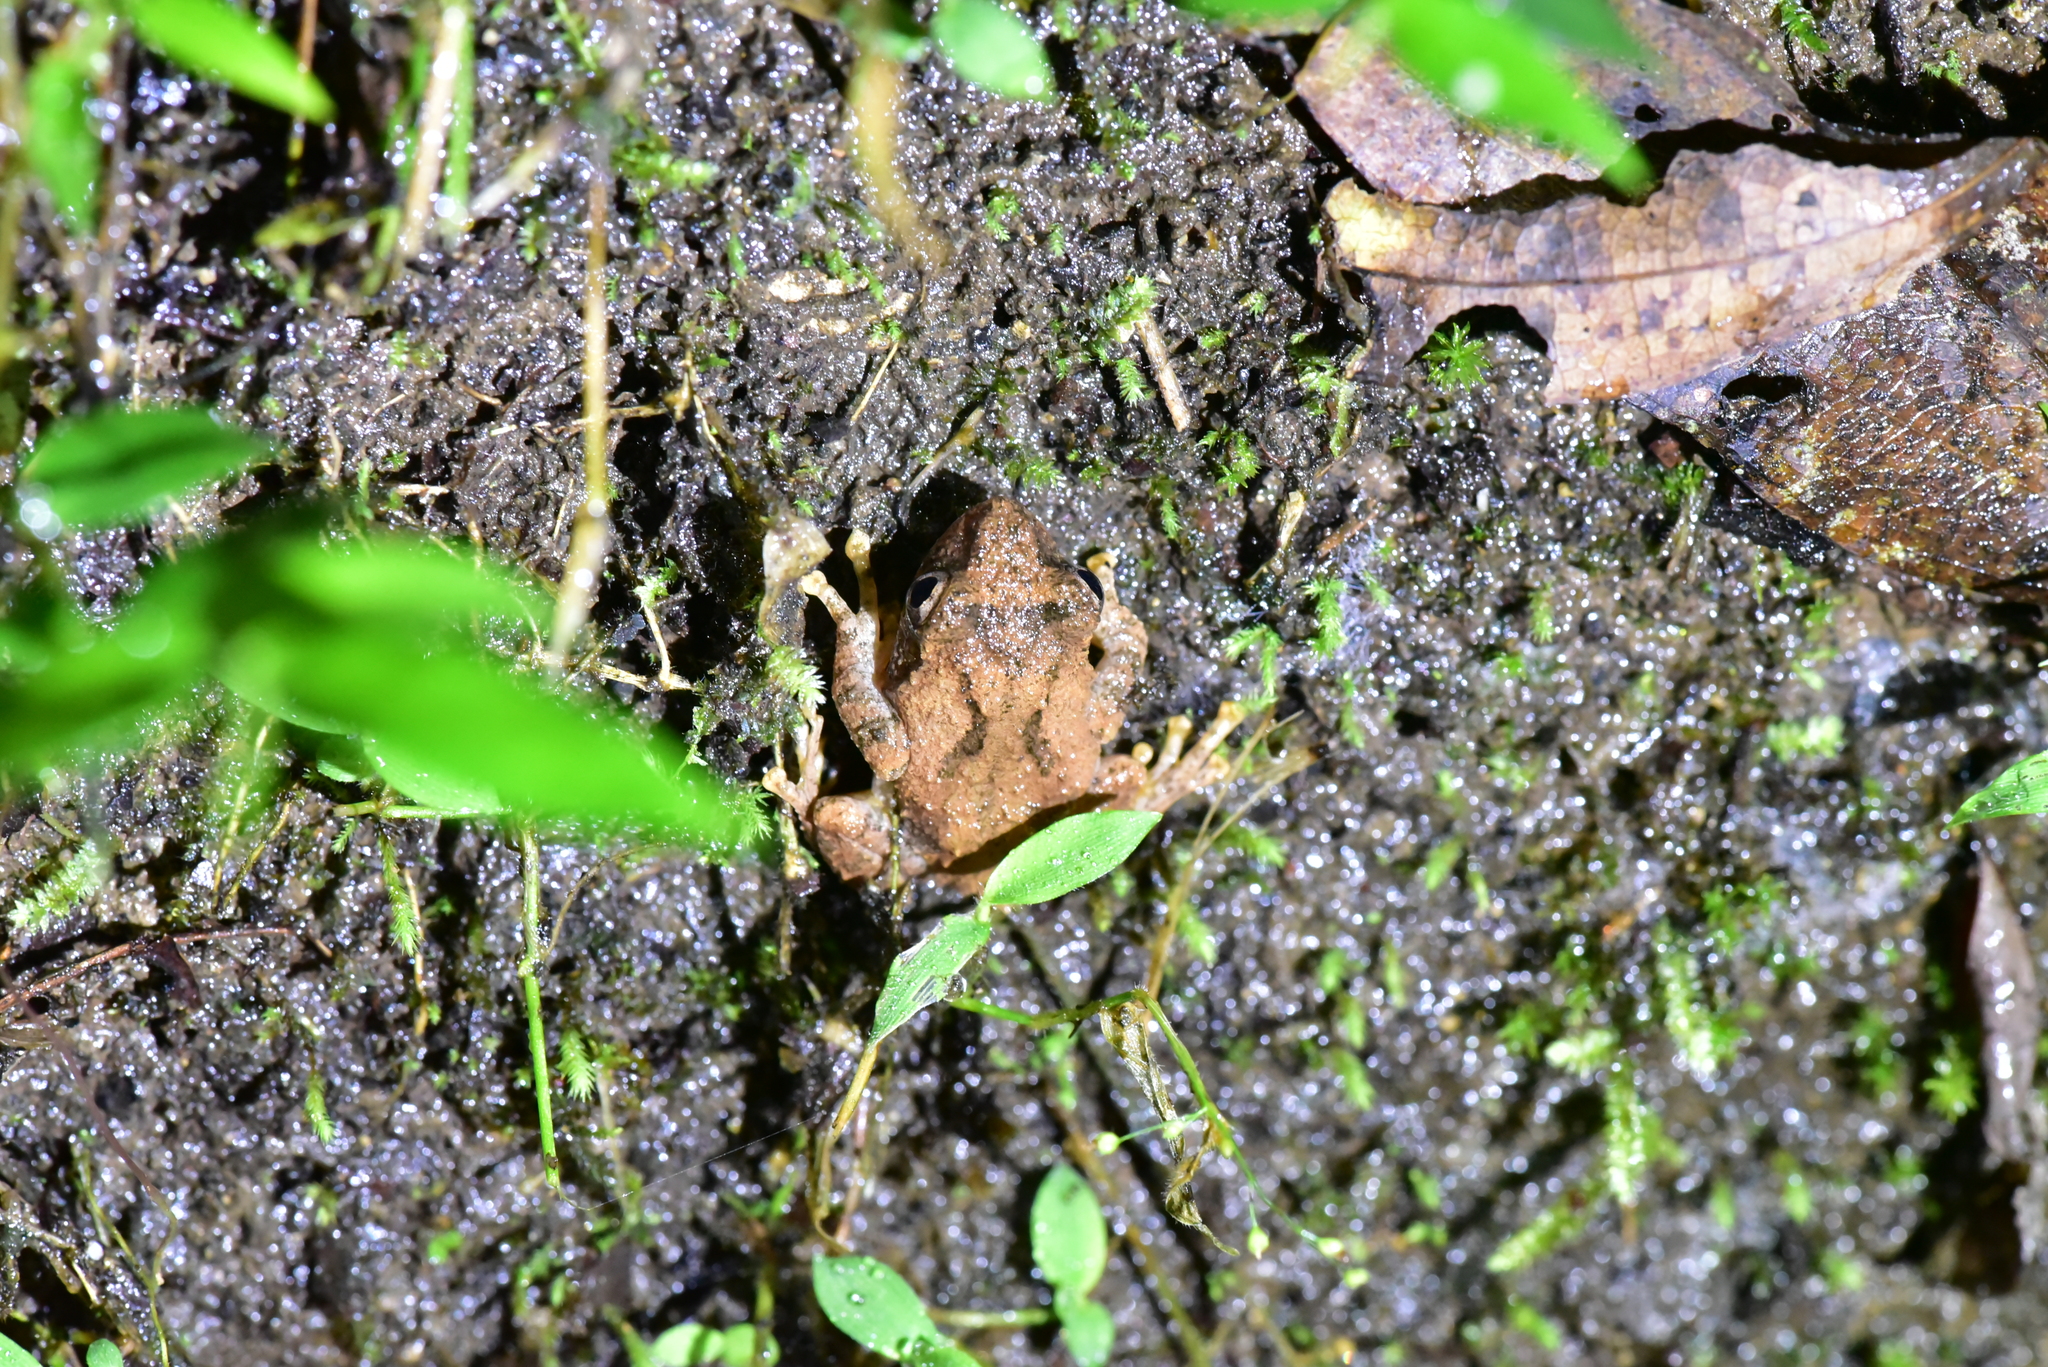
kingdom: Animalia
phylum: Chordata
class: Amphibia
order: Anura
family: Rhacophoridae
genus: Kurixalus
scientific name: Kurixalus idiootocus
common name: Temple treefrog
